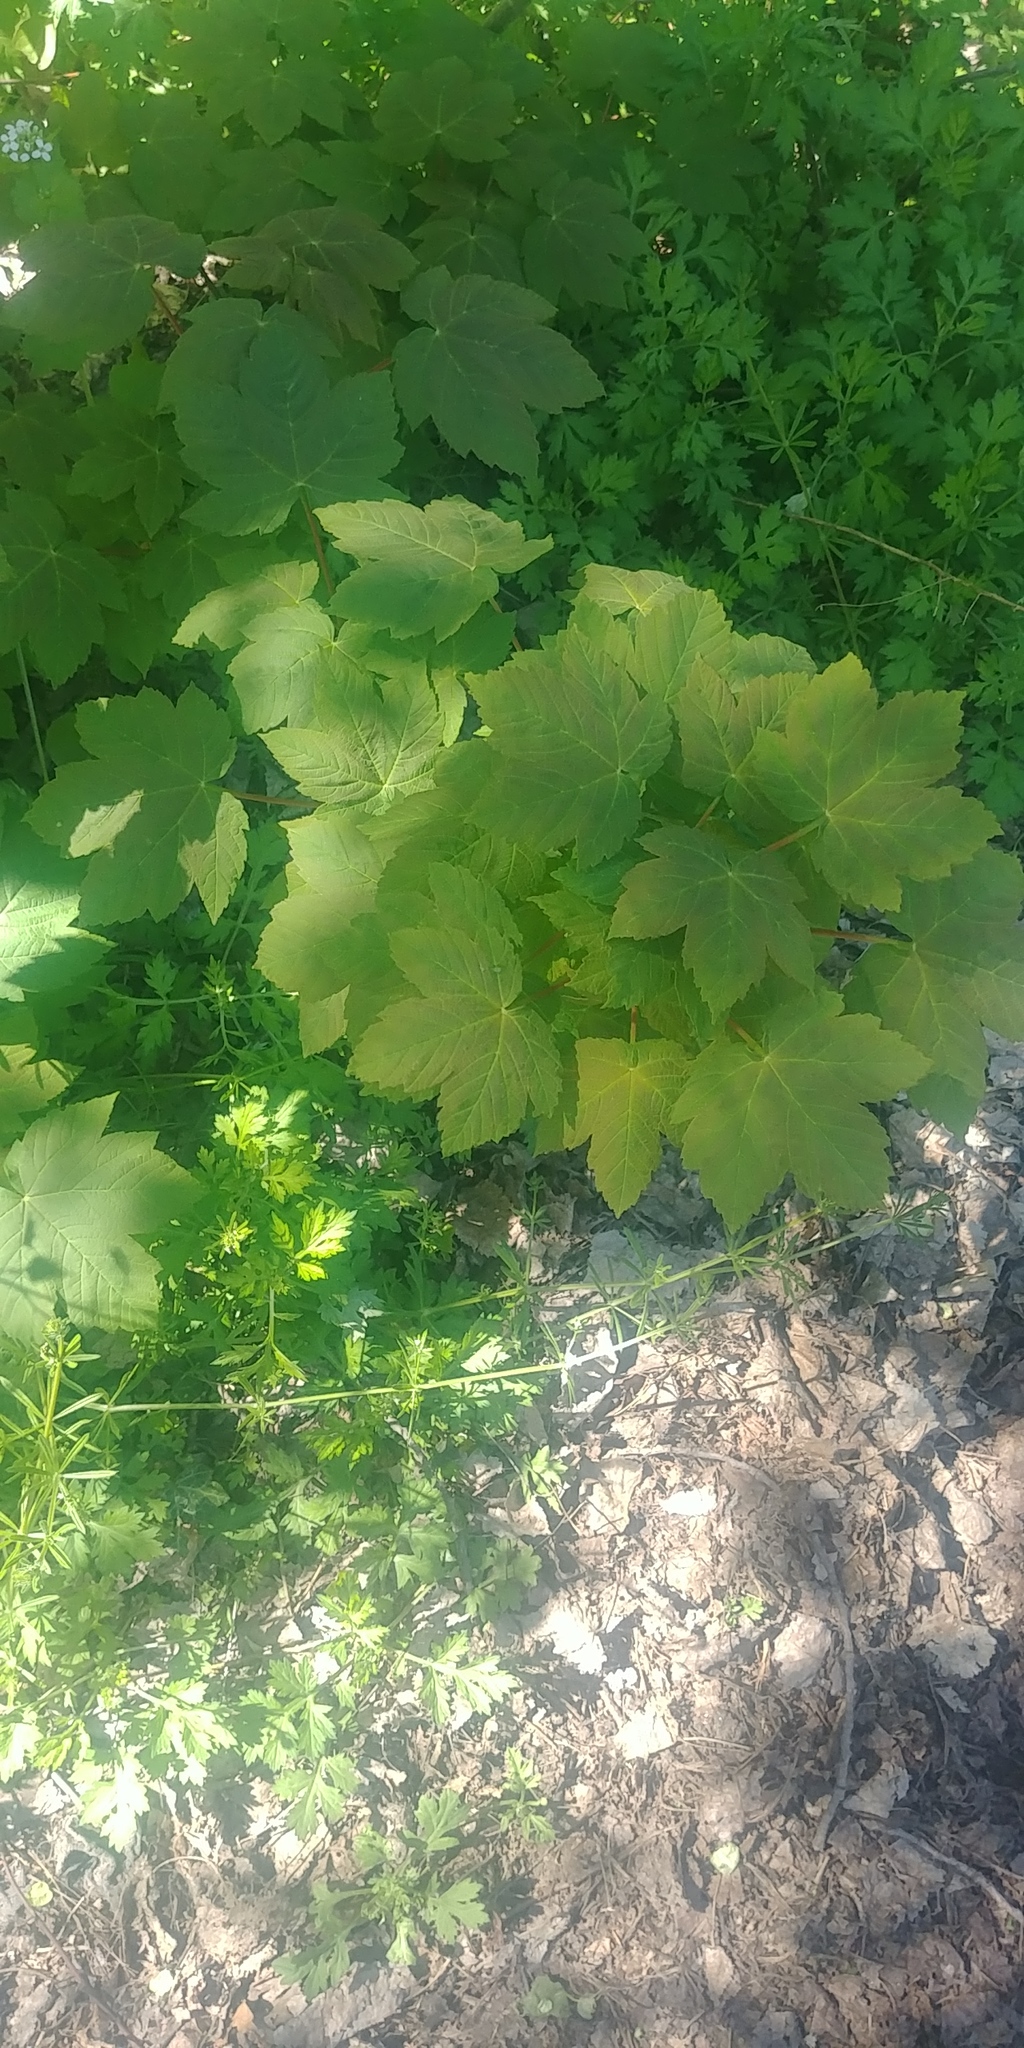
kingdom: Plantae
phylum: Tracheophyta
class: Magnoliopsida
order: Sapindales
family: Sapindaceae
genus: Acer
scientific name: Acer pseudoplatanus
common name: Sycamore
